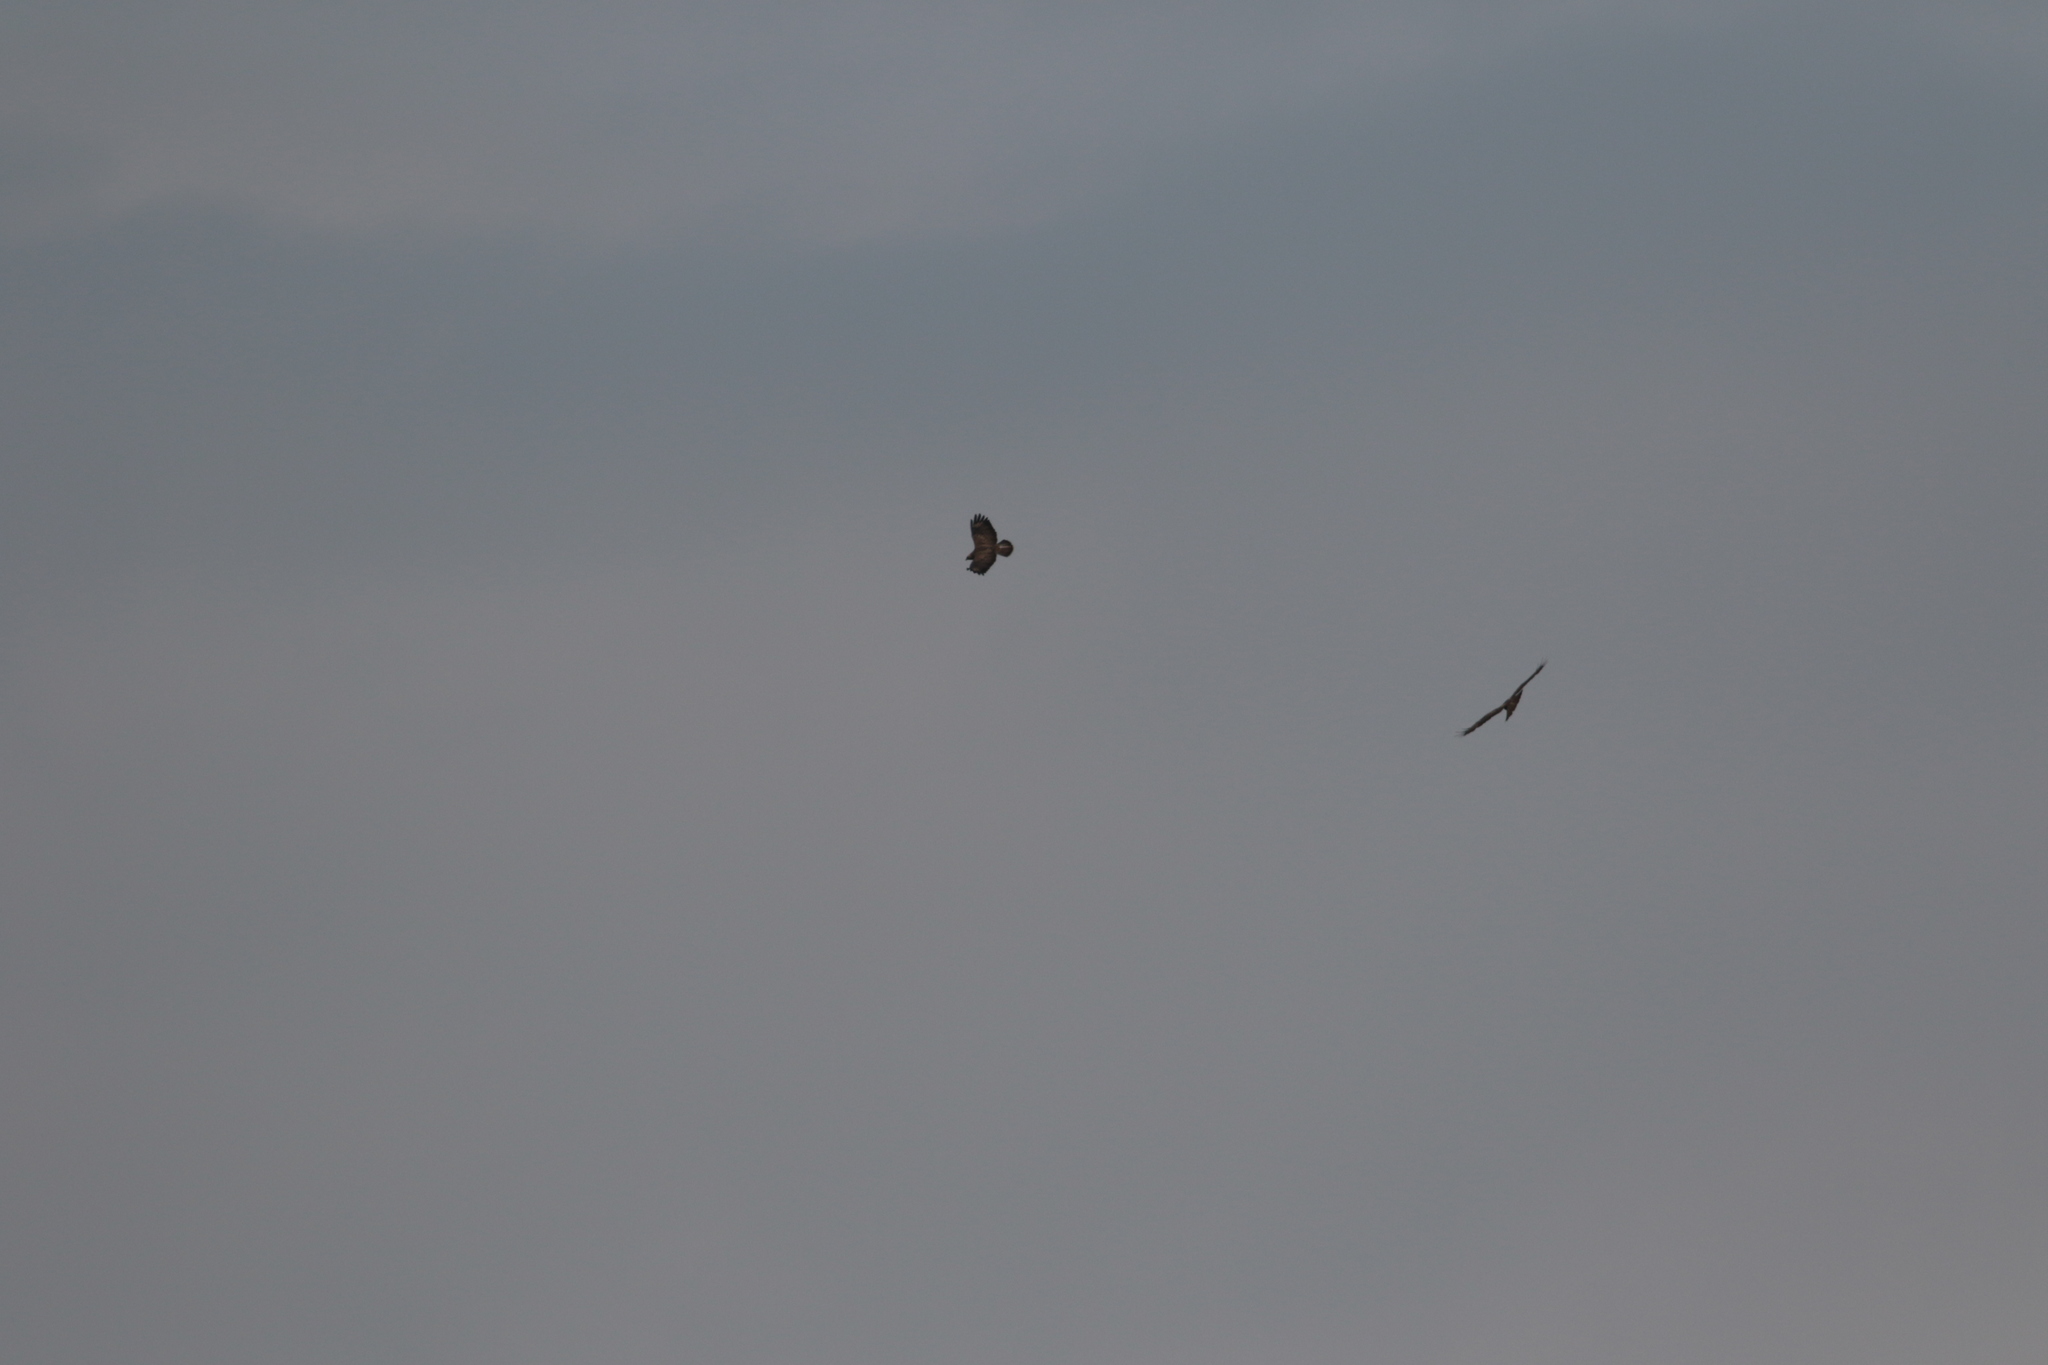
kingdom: Animalia
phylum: Chordata
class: Aves
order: Accipitriformes
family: Accipitridae
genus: Buteo
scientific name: Buteo buteo
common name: Common buzzard
